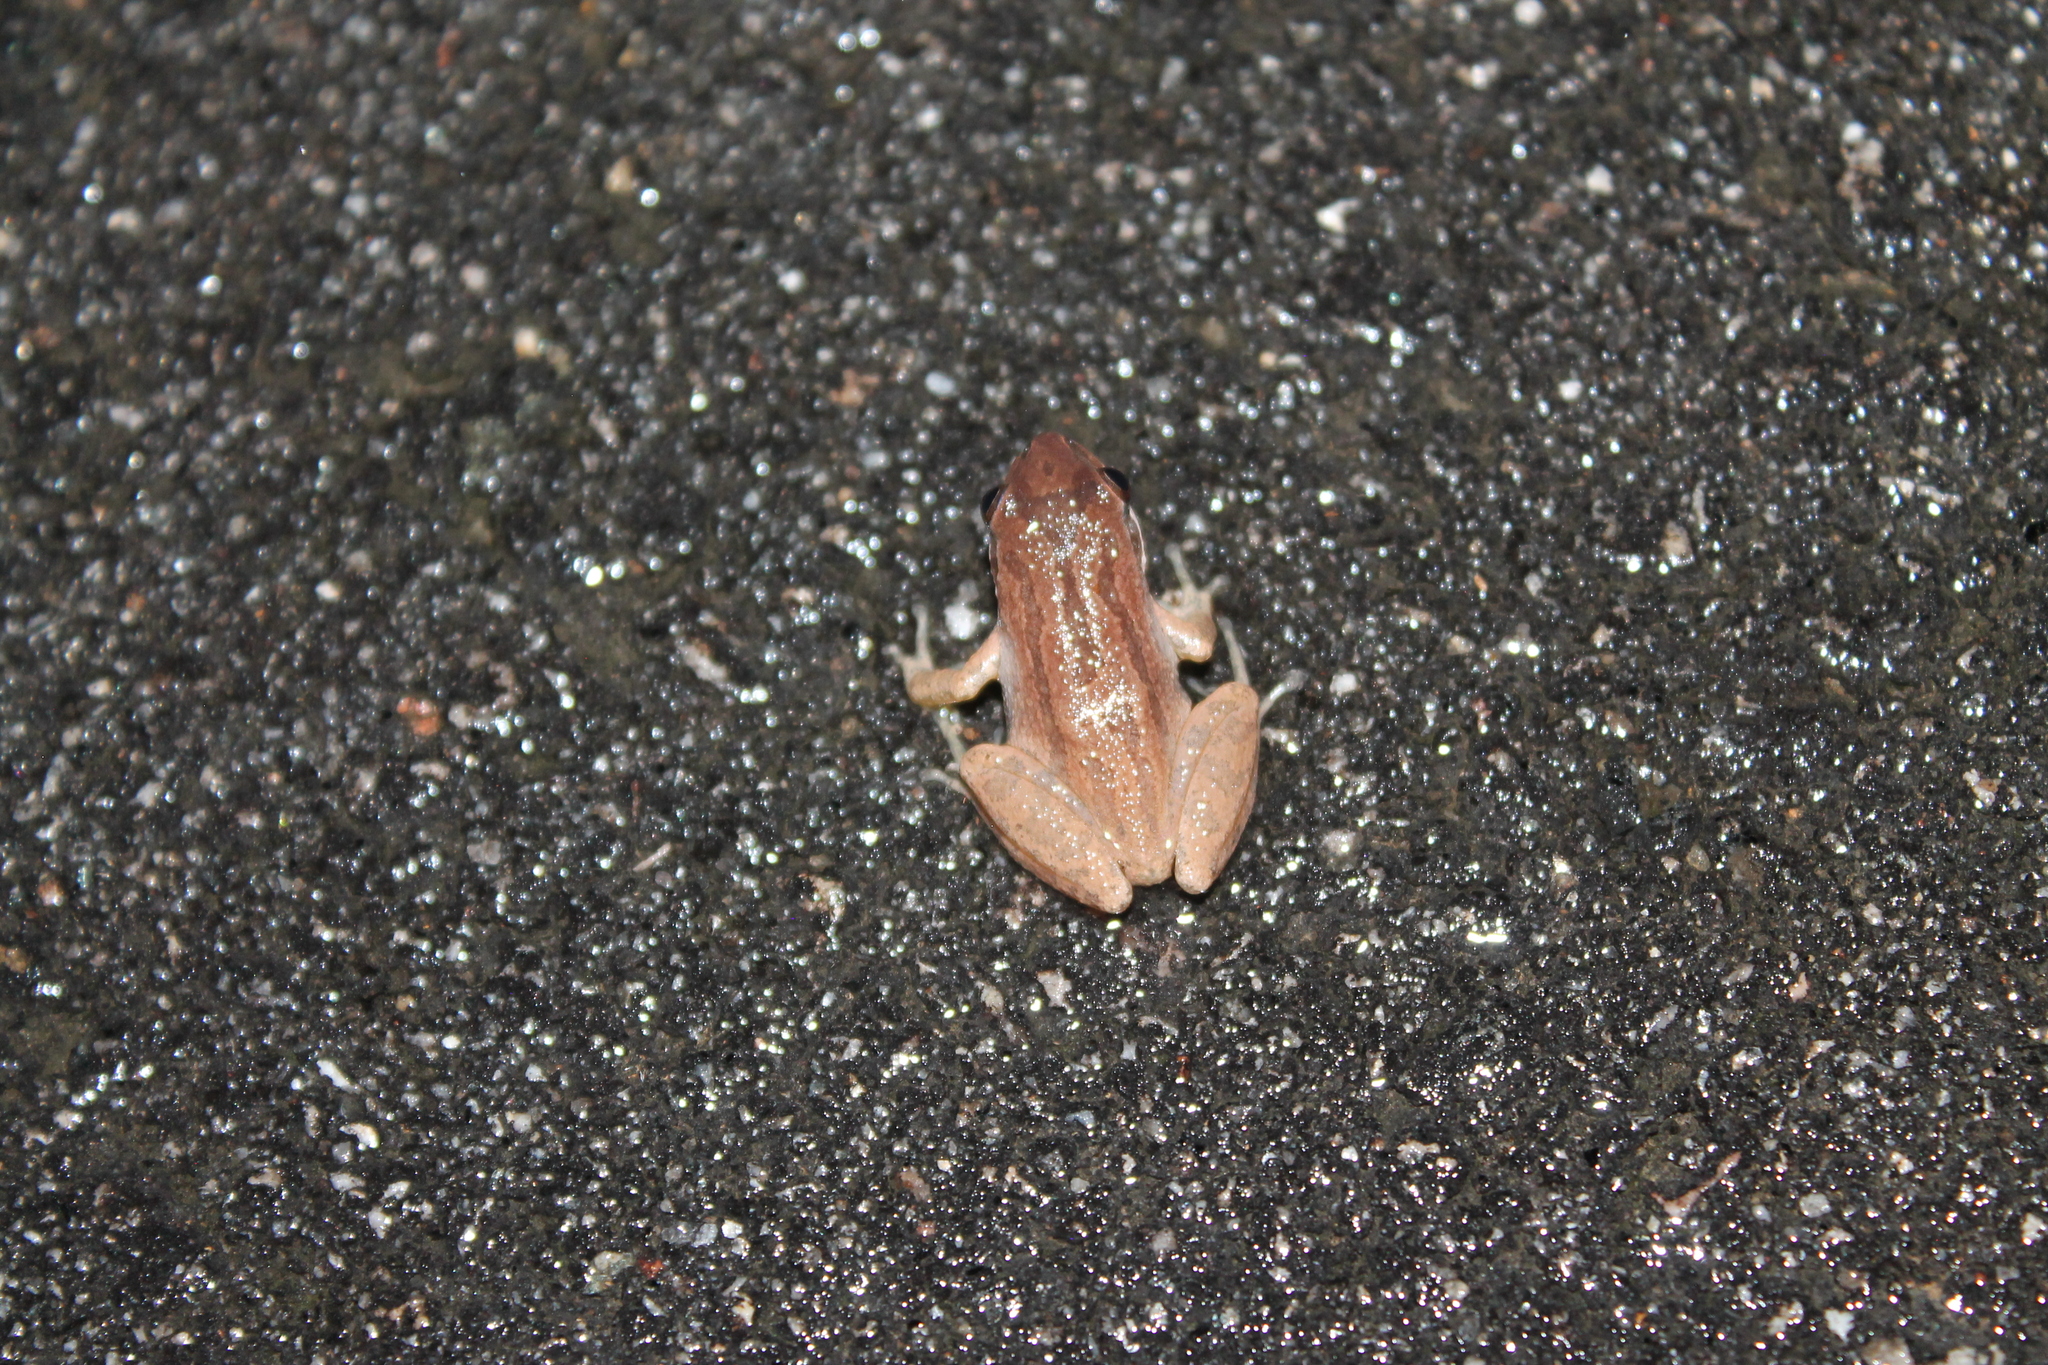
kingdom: Animalia
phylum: Chordata
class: Amphibia
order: Anura
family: Hylidae
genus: Pseudacris
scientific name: Pseudacris feriarum
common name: Upland chorus frog
